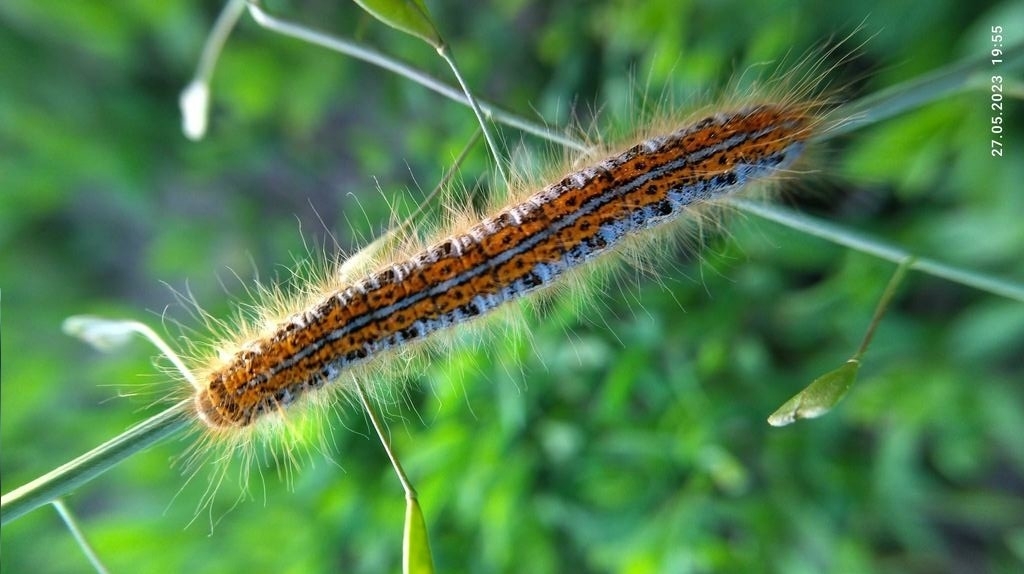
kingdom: Animalia
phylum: Arthropoda
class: Insecta
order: Lepidoptera
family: Lasiocampidae
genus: Malacosoma
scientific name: Malacosoma castrense
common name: Ground lackey
